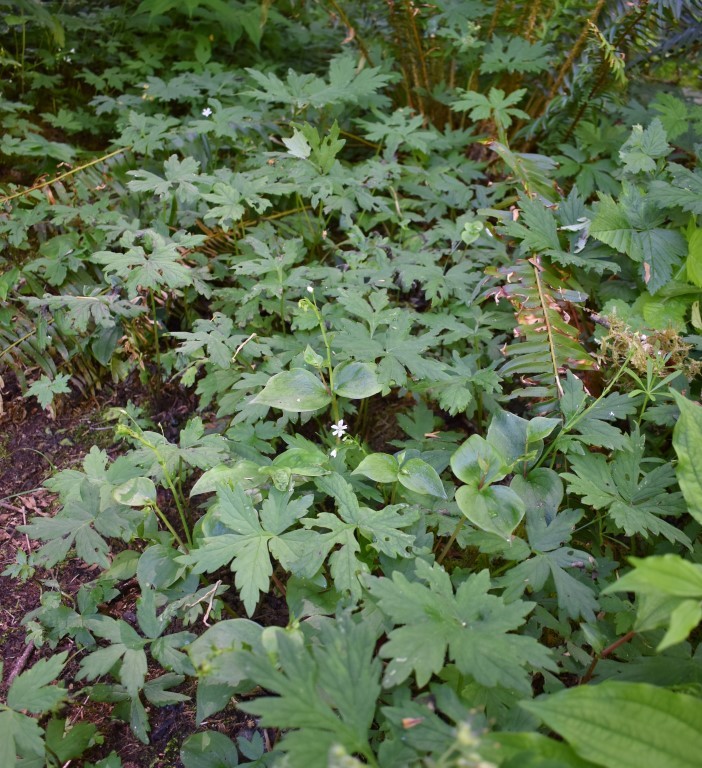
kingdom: Plantae
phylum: Tracheophyta
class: Magnoliopsida
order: Boraginales
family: Hydrophyllaceae
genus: Hydrophyllum
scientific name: Hydrophyllum tenuipes
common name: Pacific waterleaf
